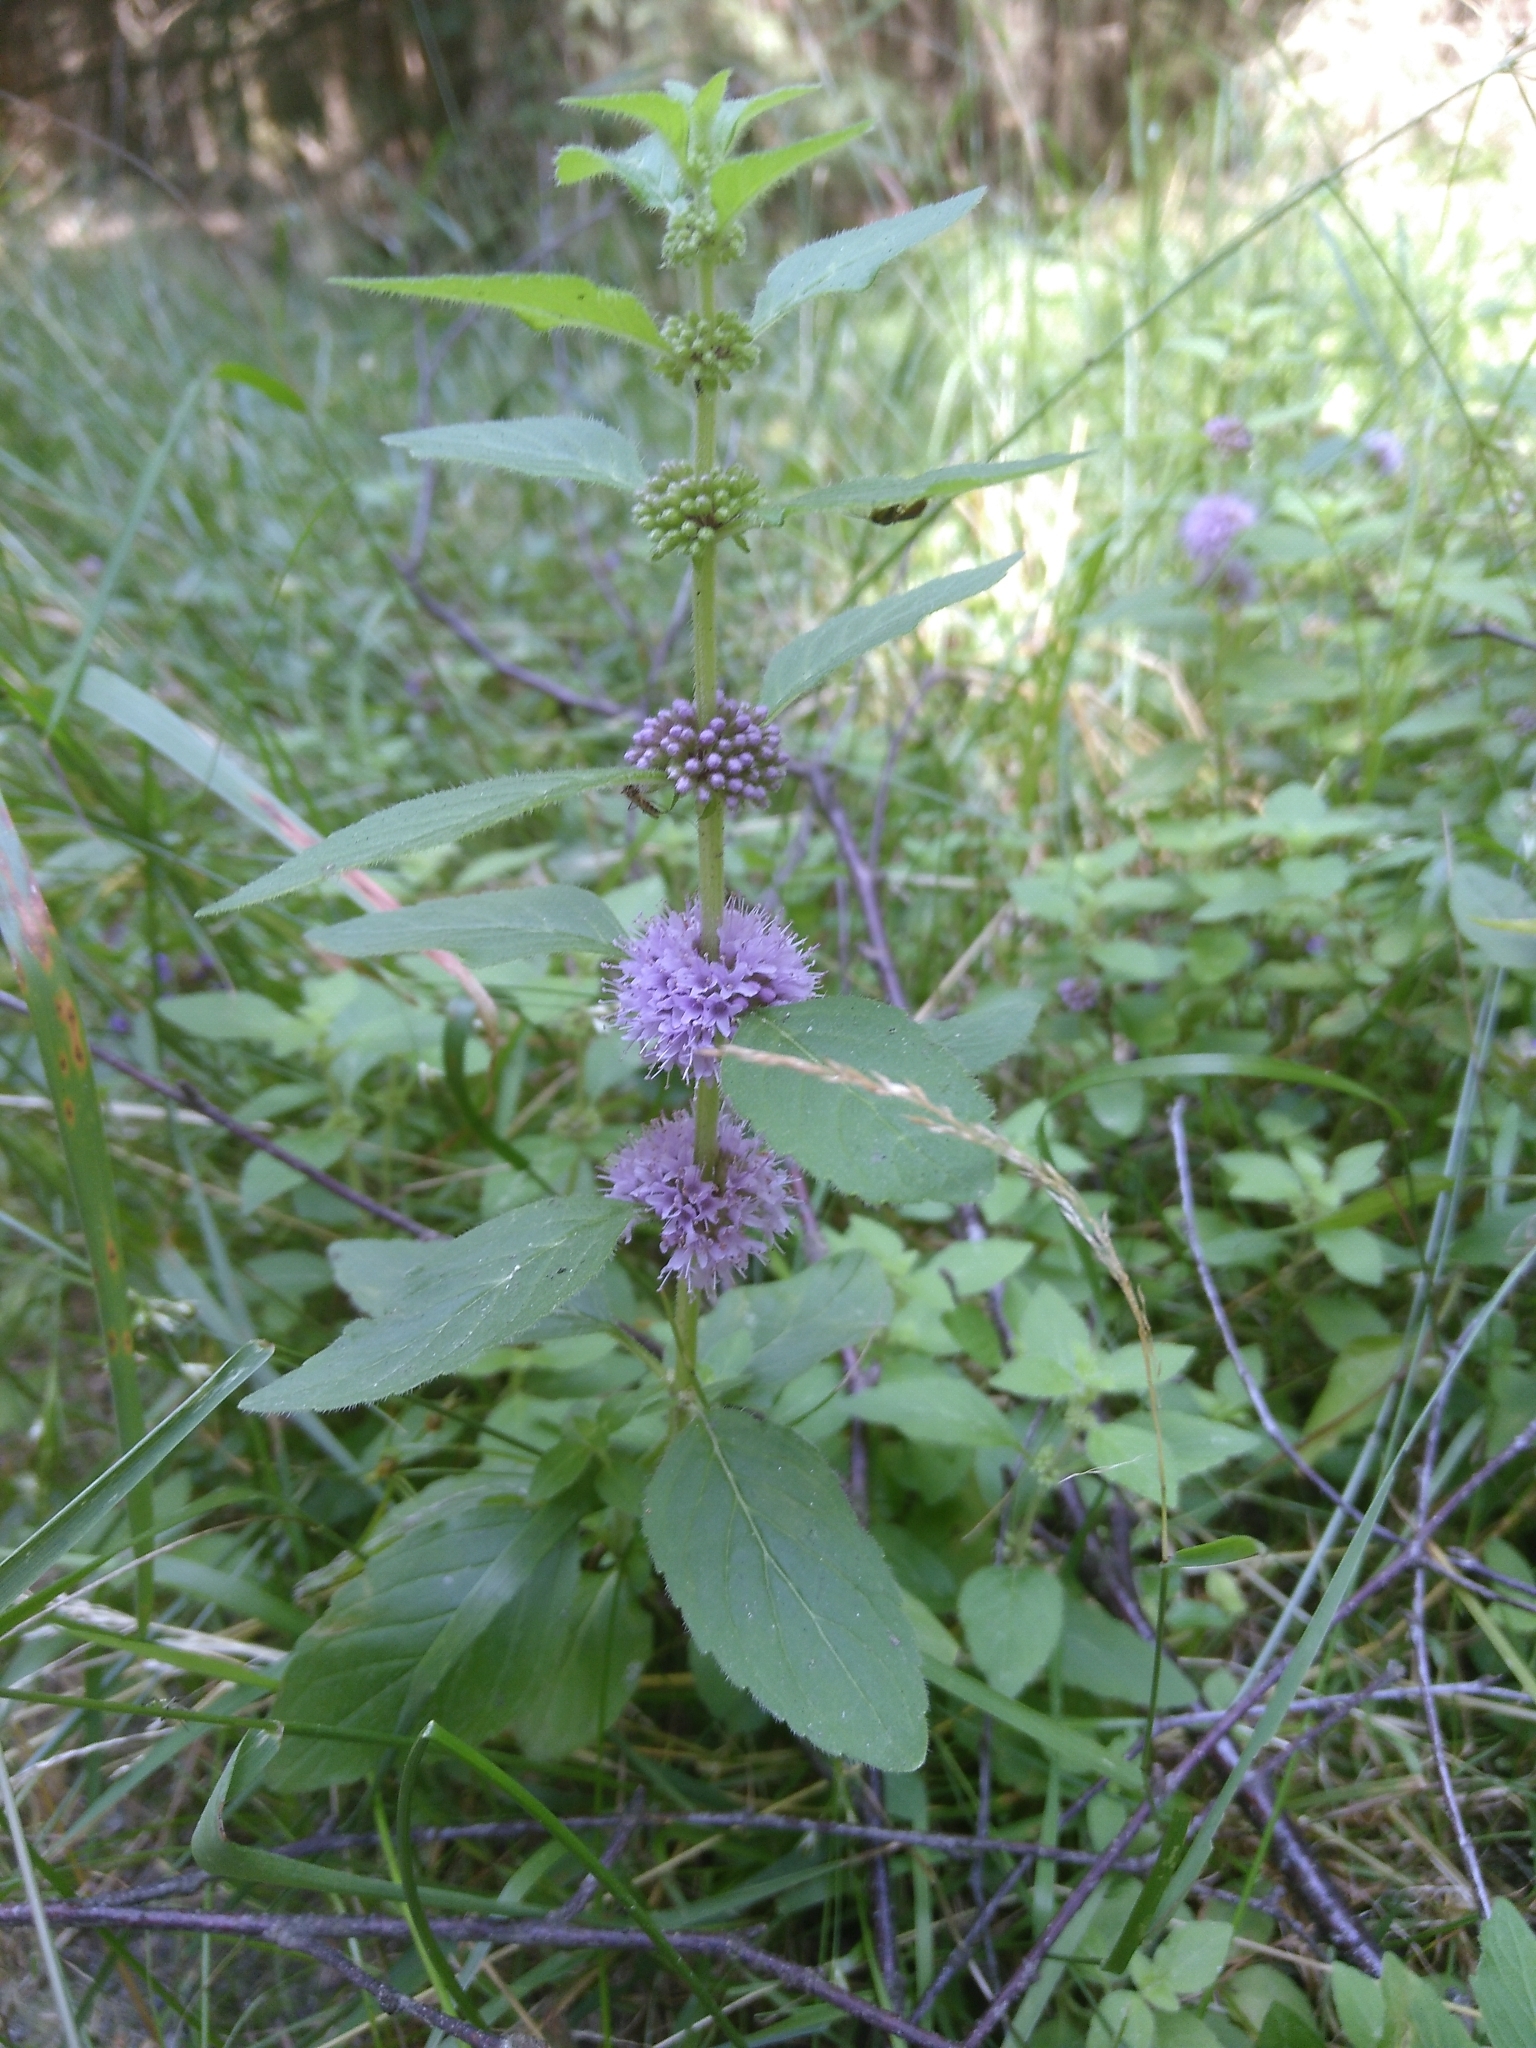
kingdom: Plantae
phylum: Tracheophyta
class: Magnoliopsida
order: Lamiales
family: Lamiaceae
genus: Mentha
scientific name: Mentha arvensis
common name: Corn mint
